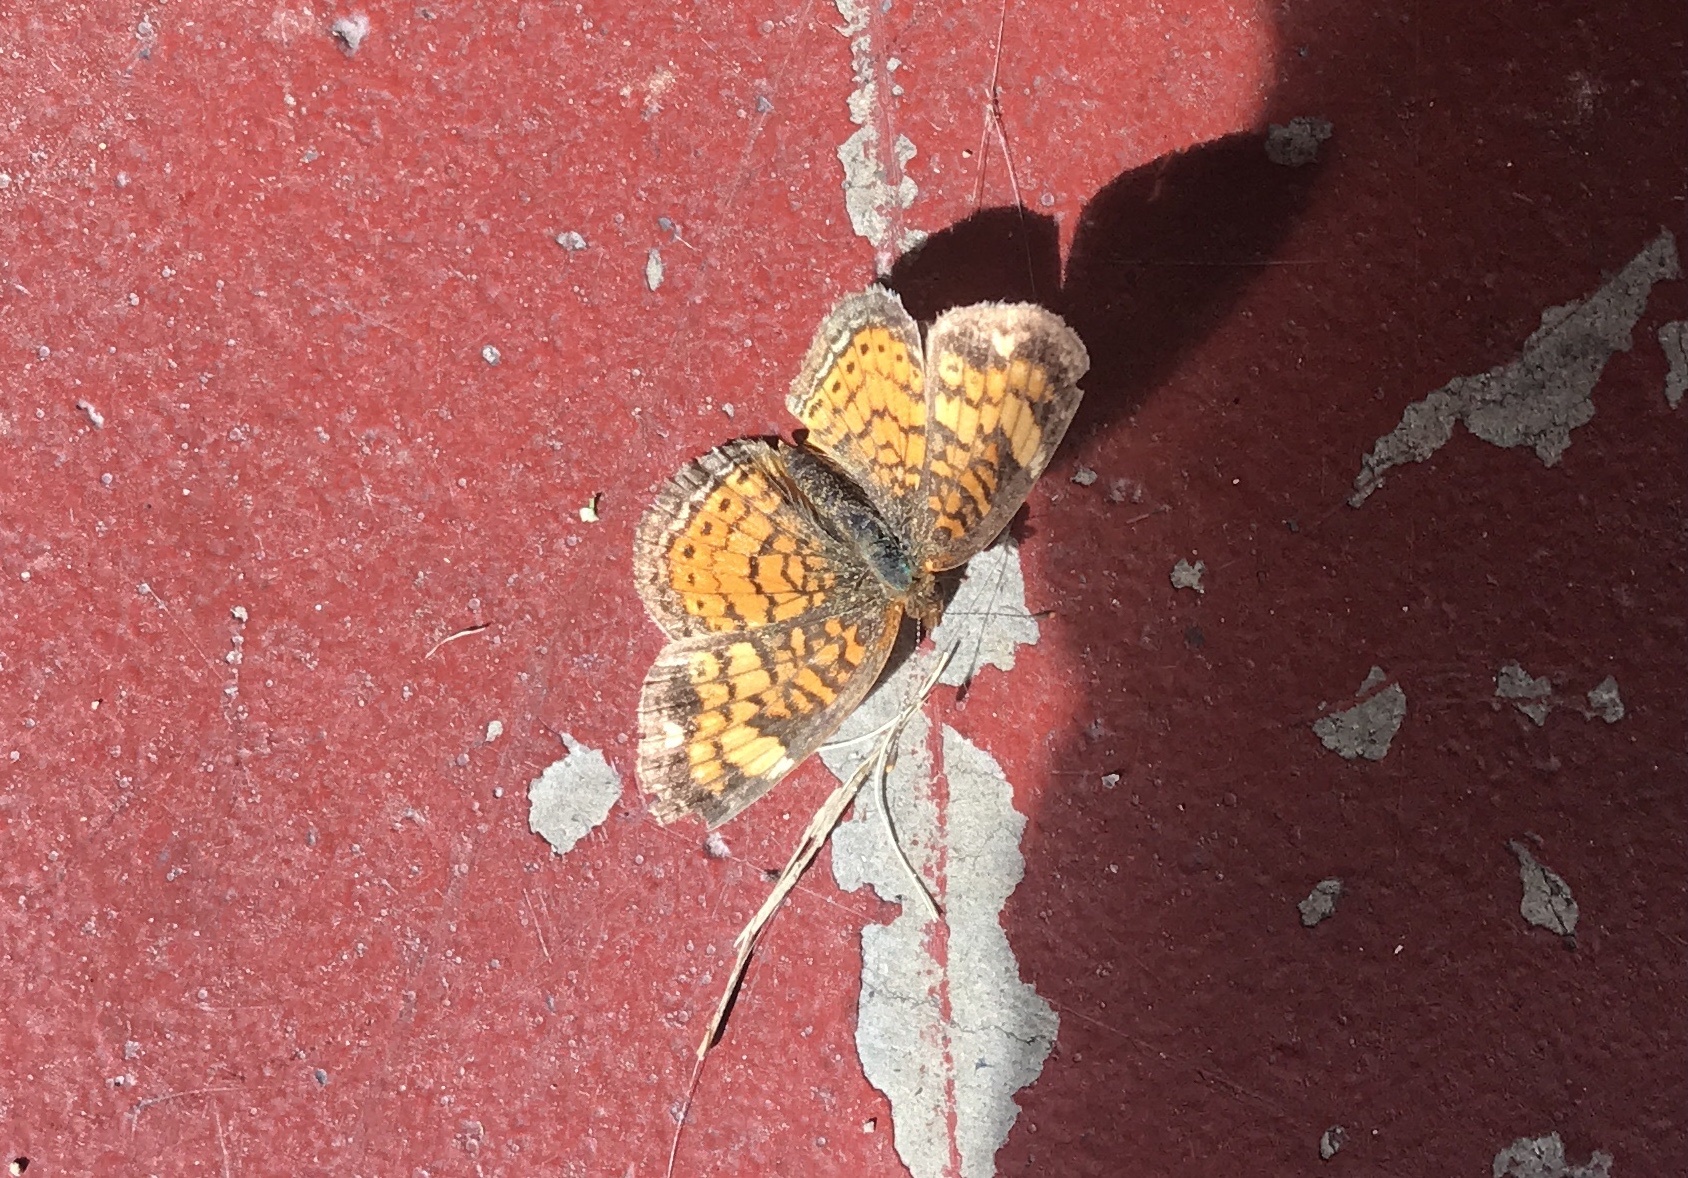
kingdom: Animalia
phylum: Arthropoda
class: Insecta
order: Lepidoptera
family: Nymphalidae
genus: Phyciodes
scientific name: Phyciodes tharos
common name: Pearl crescent
